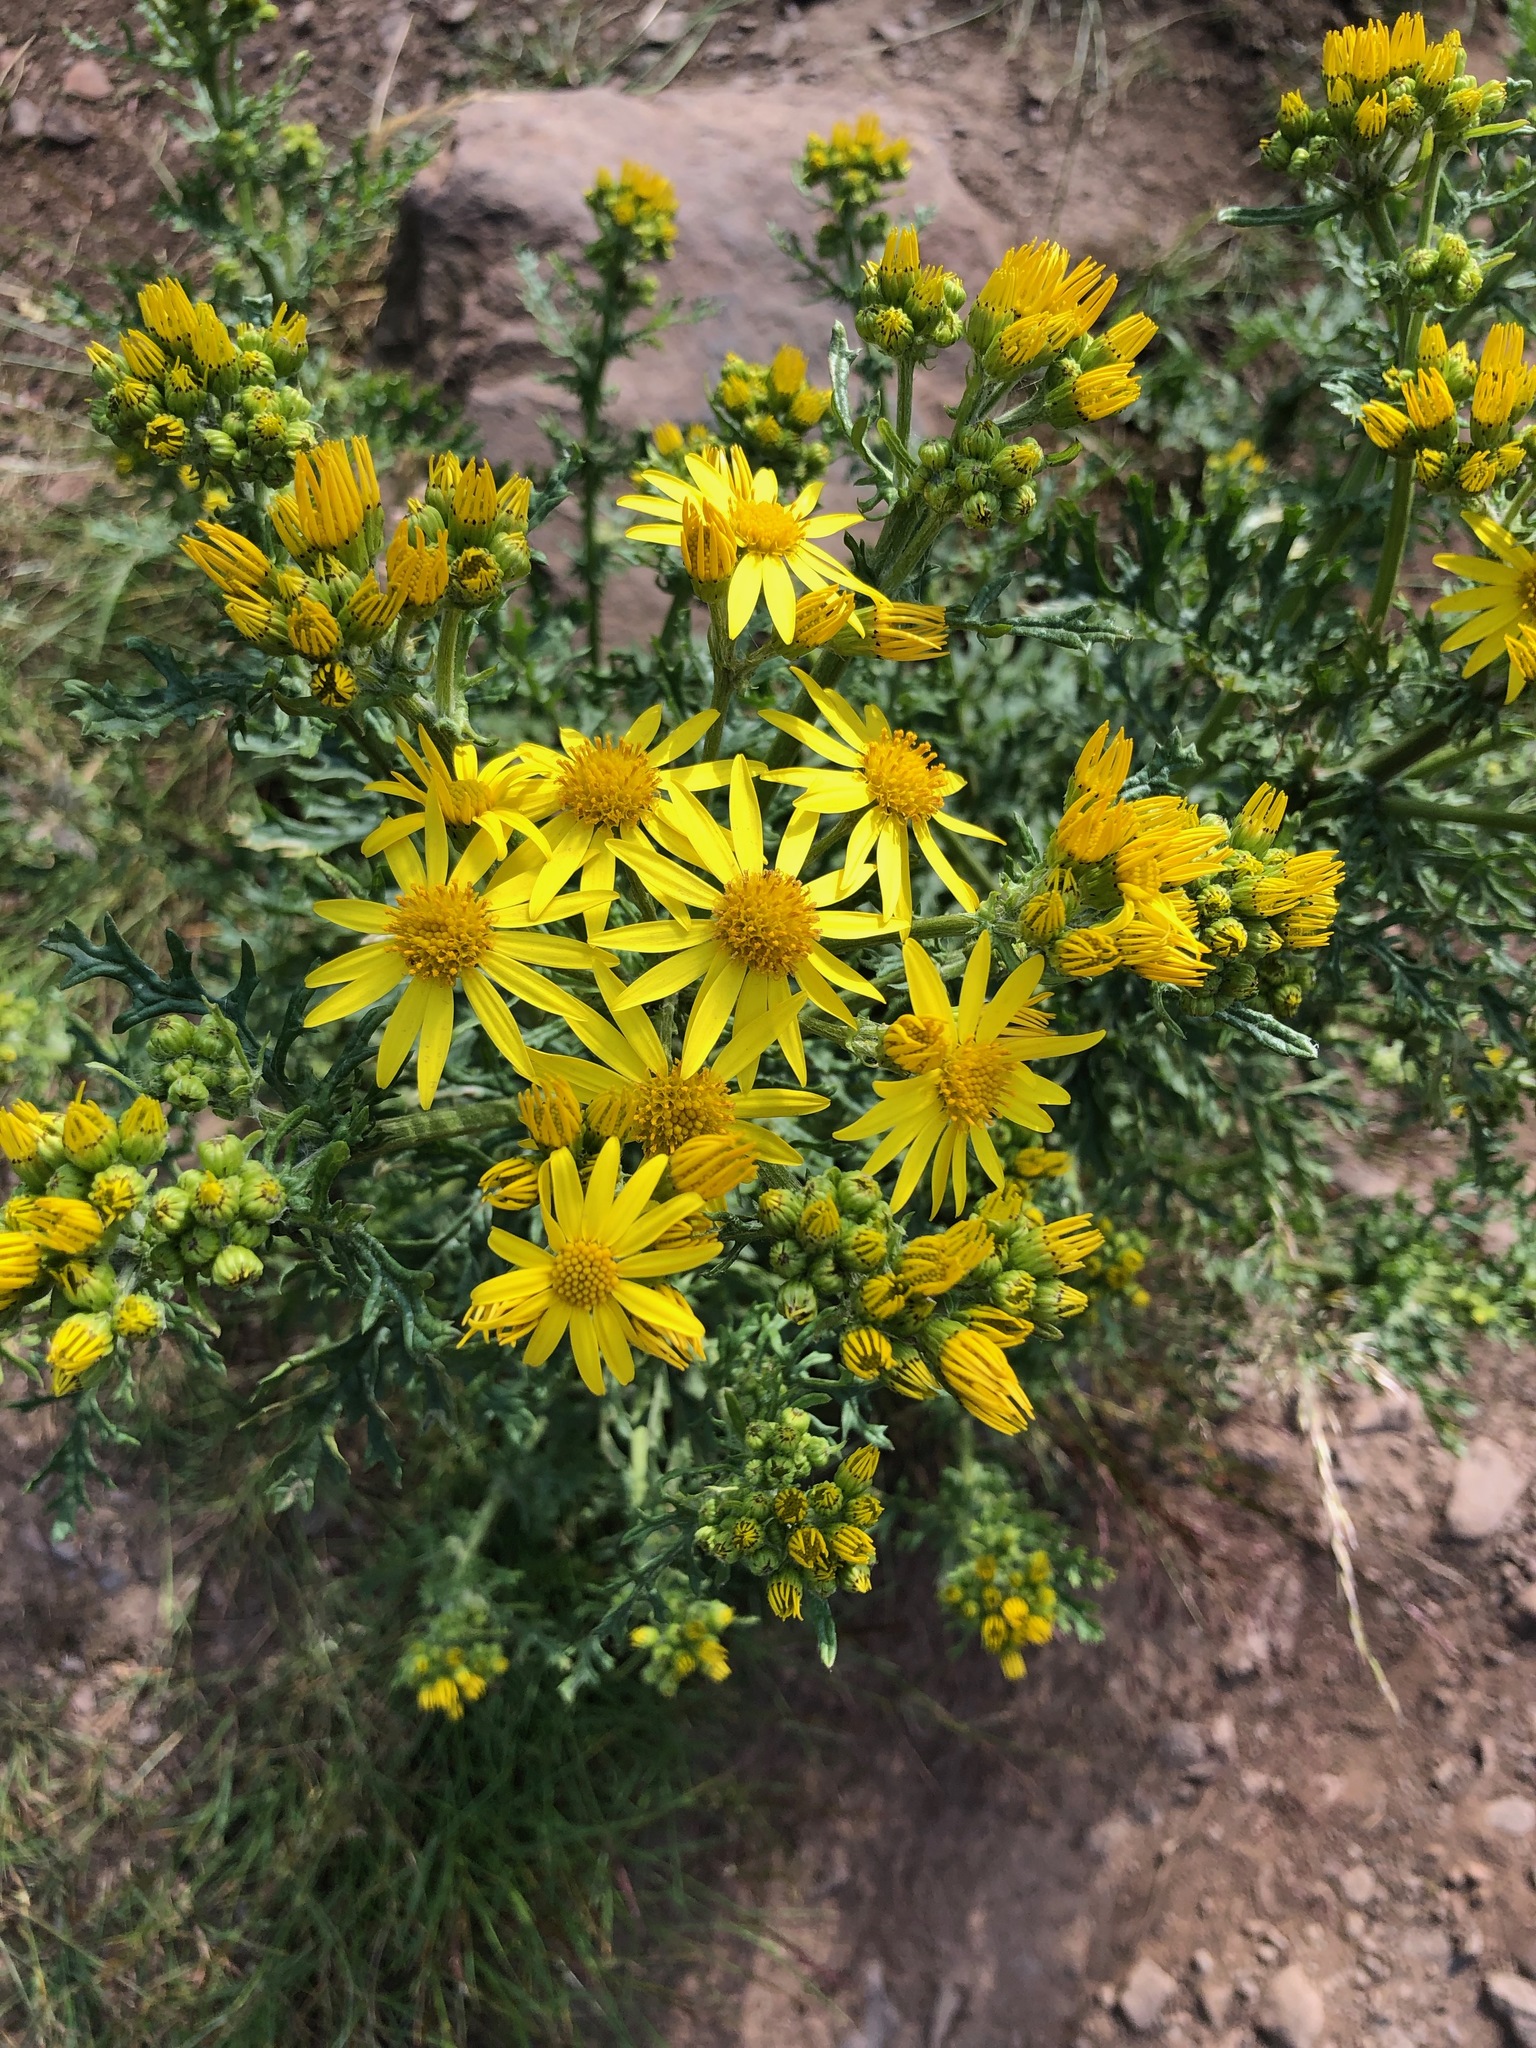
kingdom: Plantae
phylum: Tracheophyta
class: Magnoliopsida
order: Asterales
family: Asteraceae
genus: Jacobaea
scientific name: Jacobaea vulgaris
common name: Stinking willie
